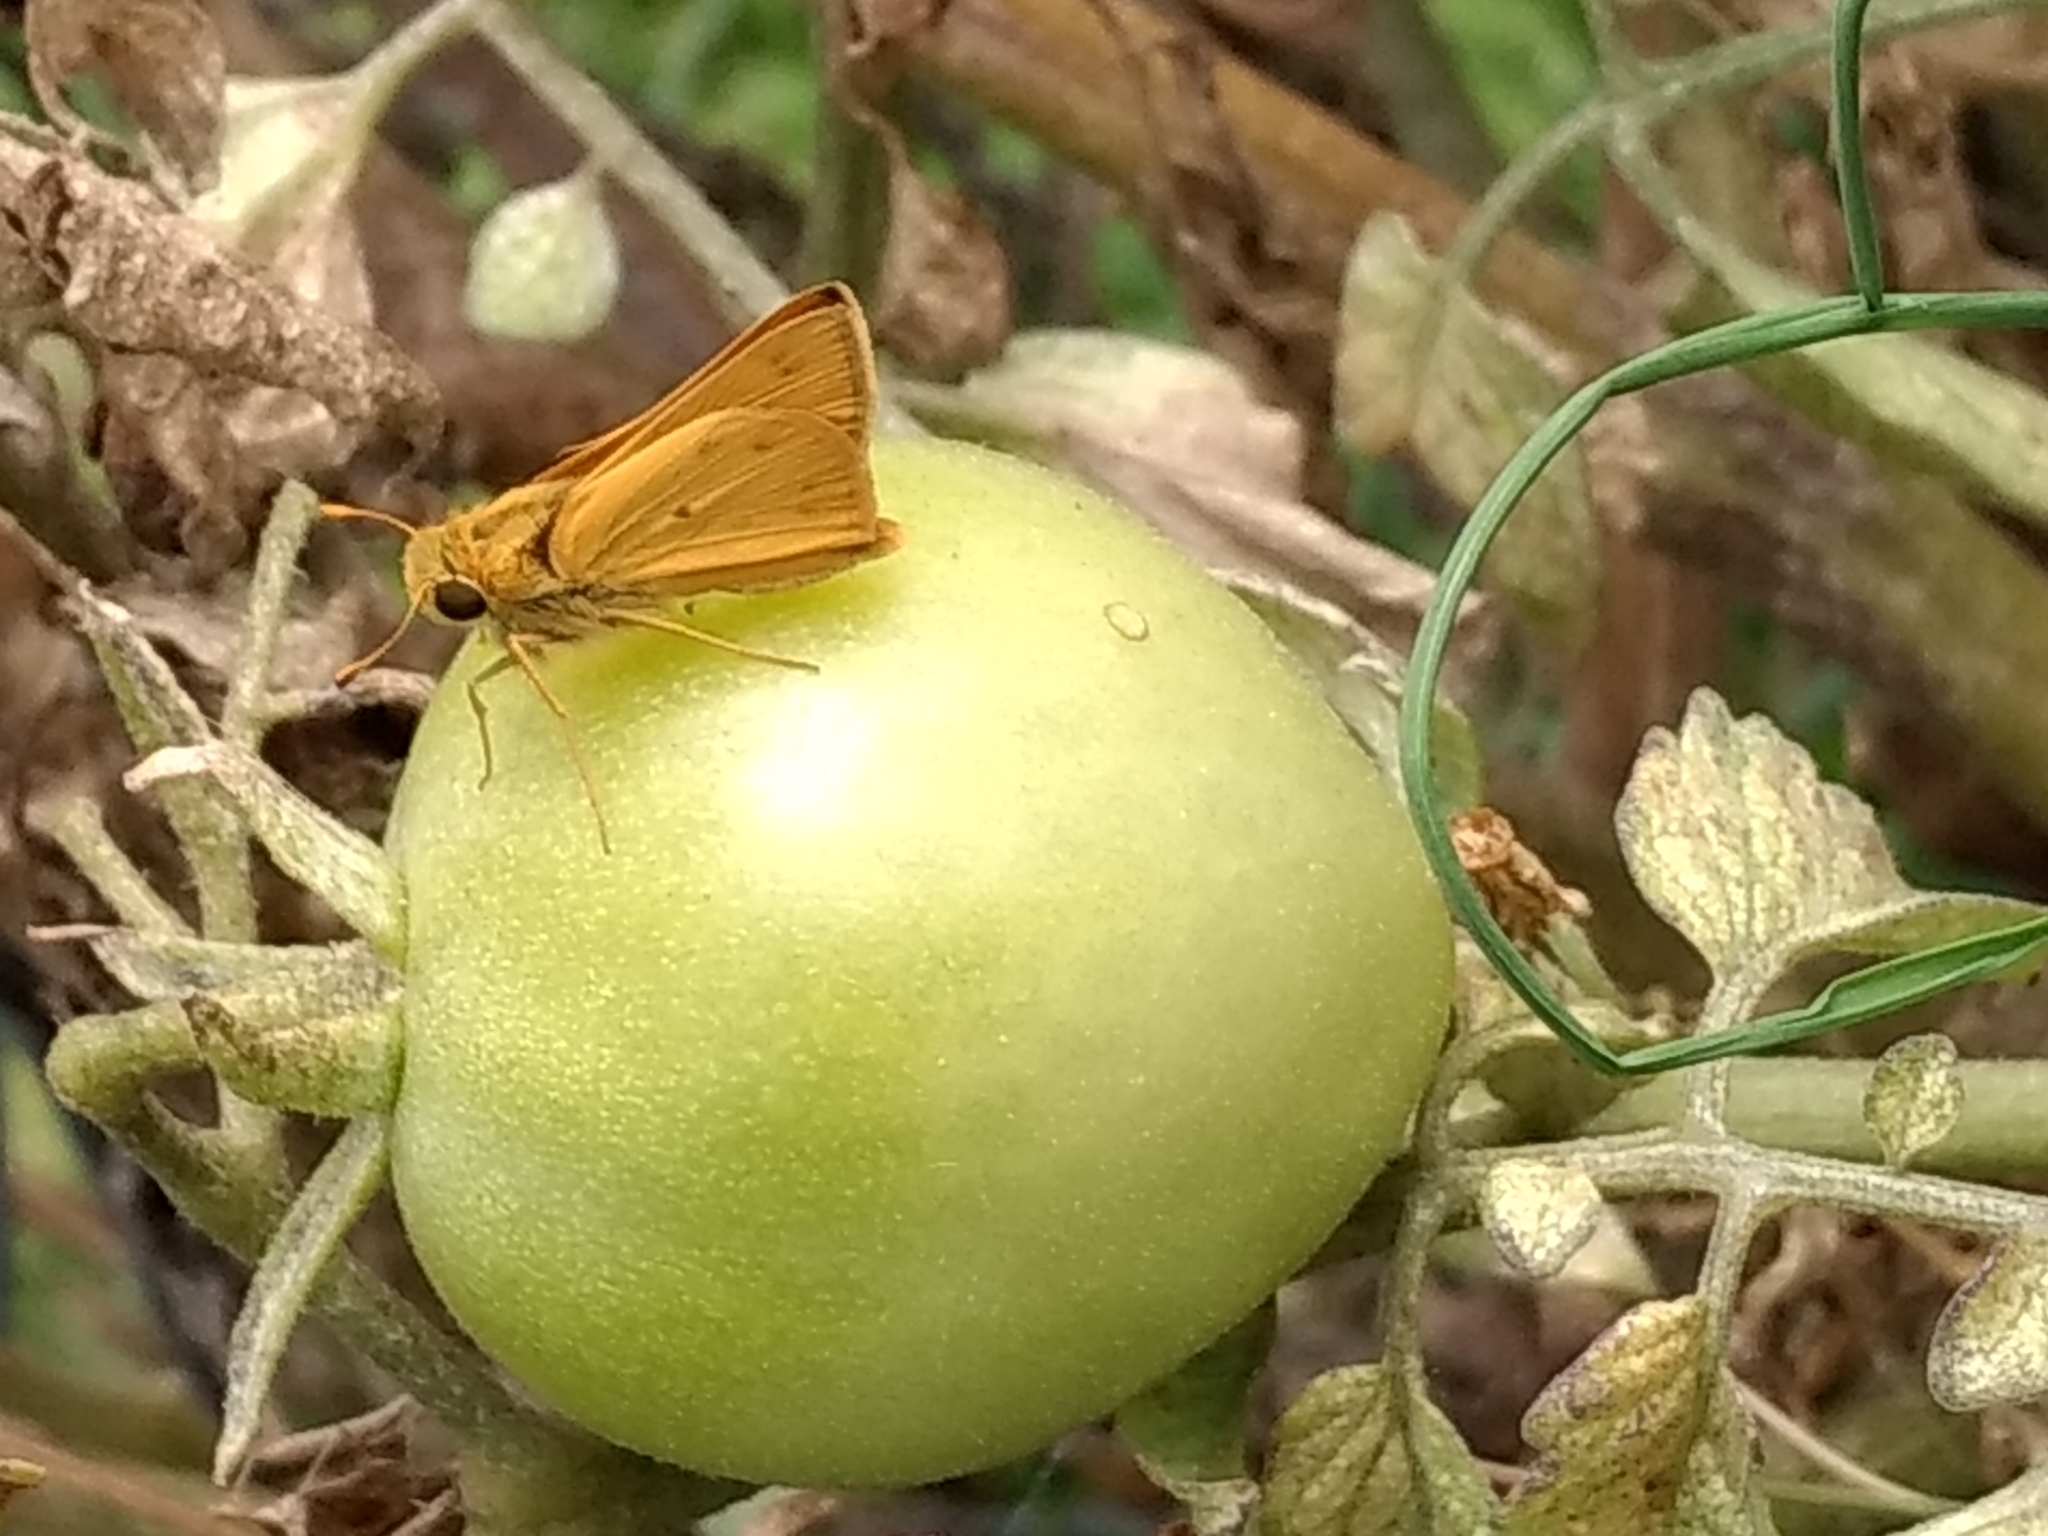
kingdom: Animalia
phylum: Arthropoda
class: Insecta
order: Lepidoptera
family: Hesperiidae
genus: Hylephila
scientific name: Hylephila phyleus
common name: Fiery skipper
